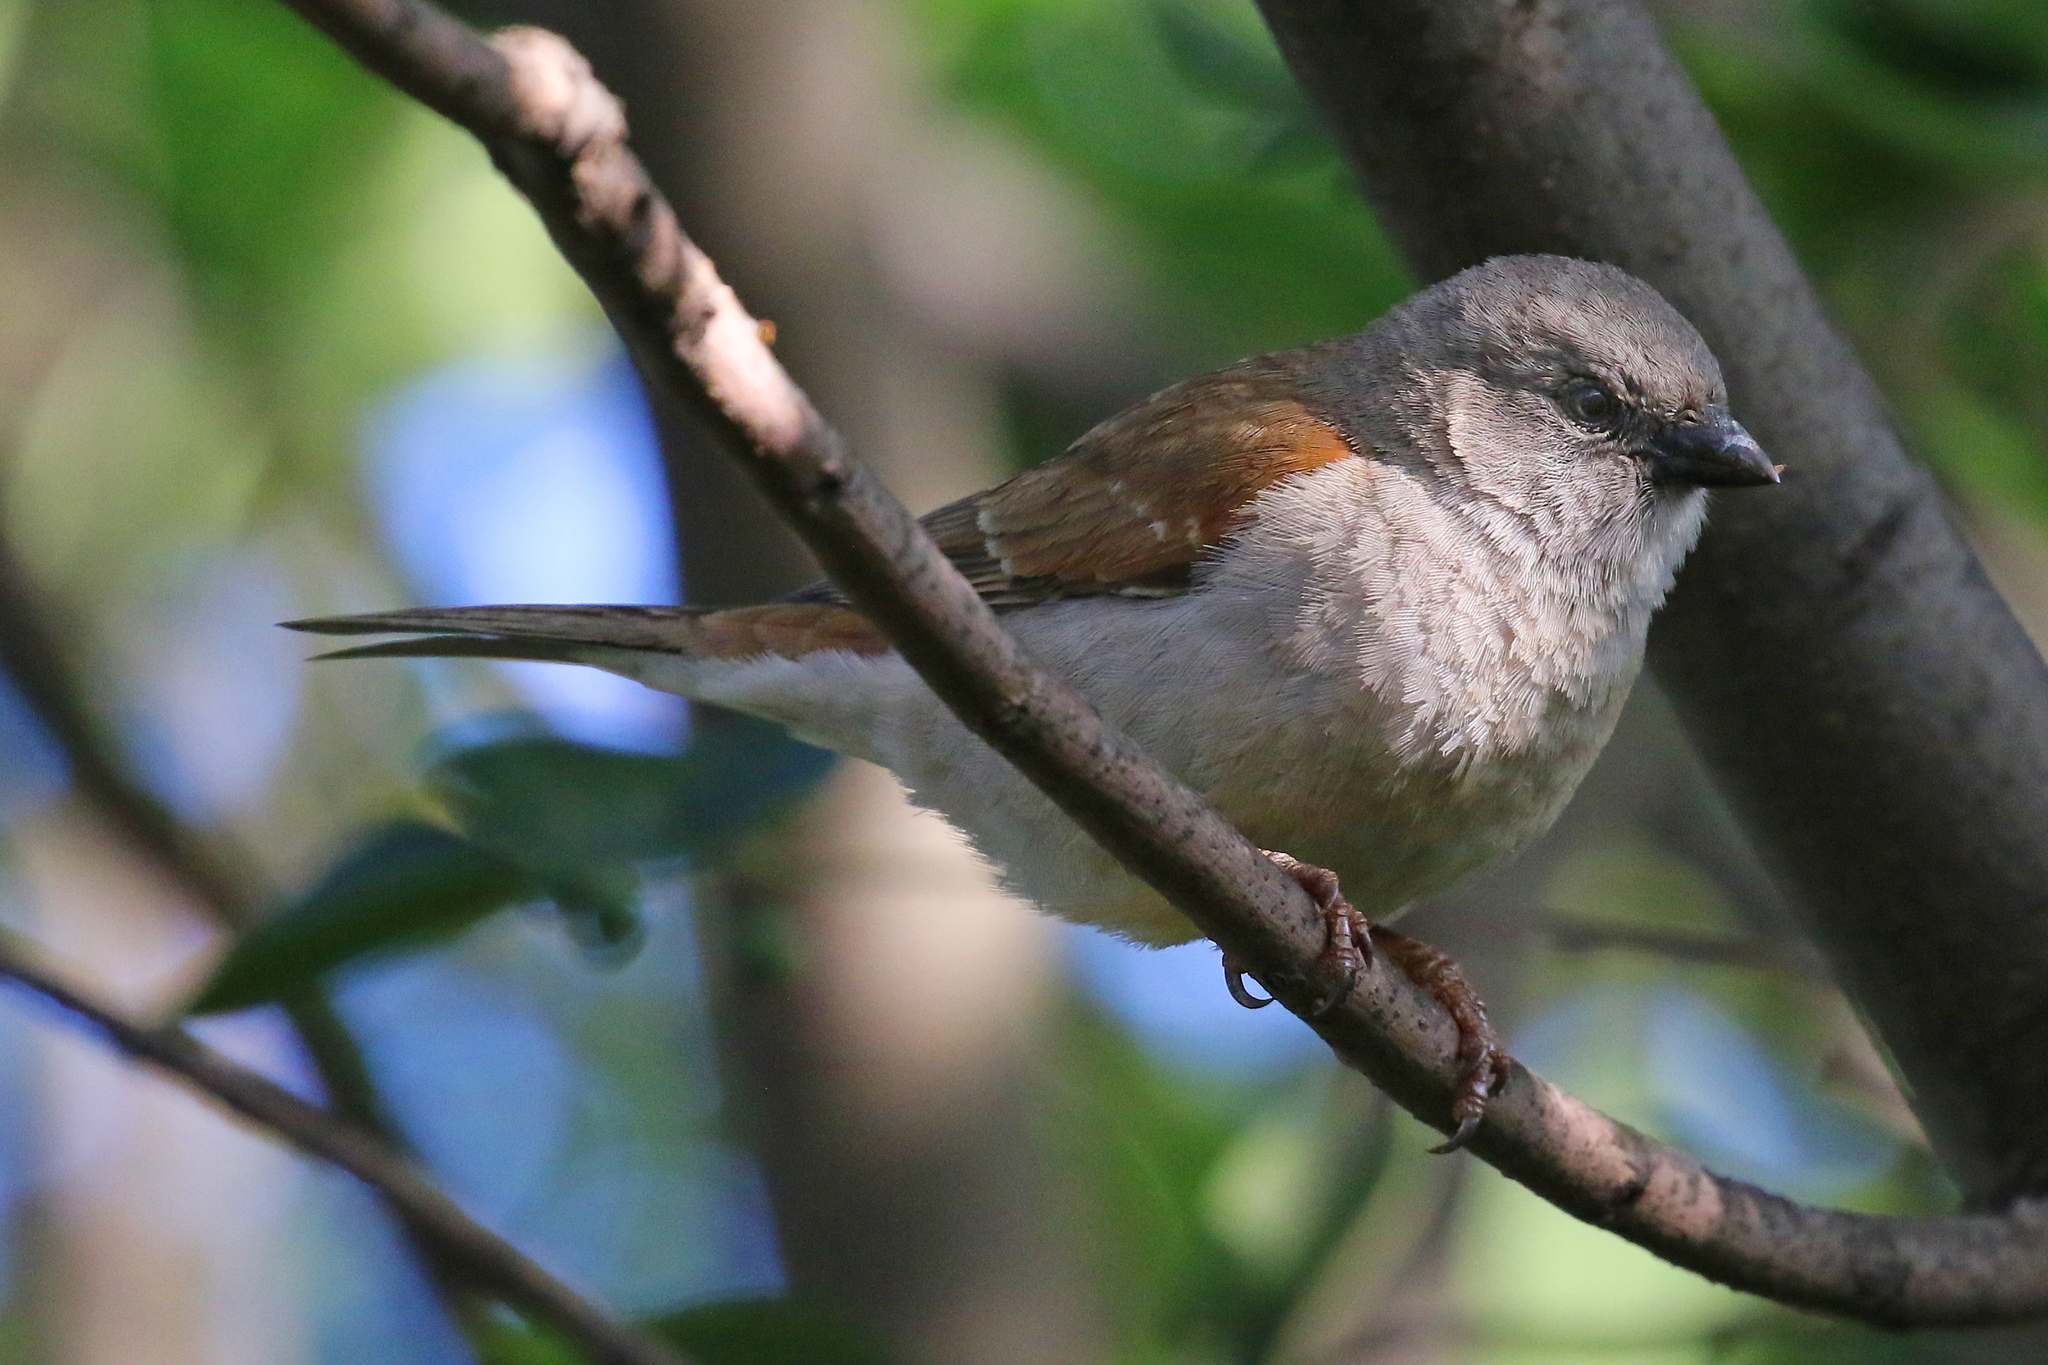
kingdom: Animalia
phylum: Chordata
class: Aves
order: Passeriformes
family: Passeridae
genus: Passer
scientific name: Passer diffusus
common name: Southern grey-headed sparrow
